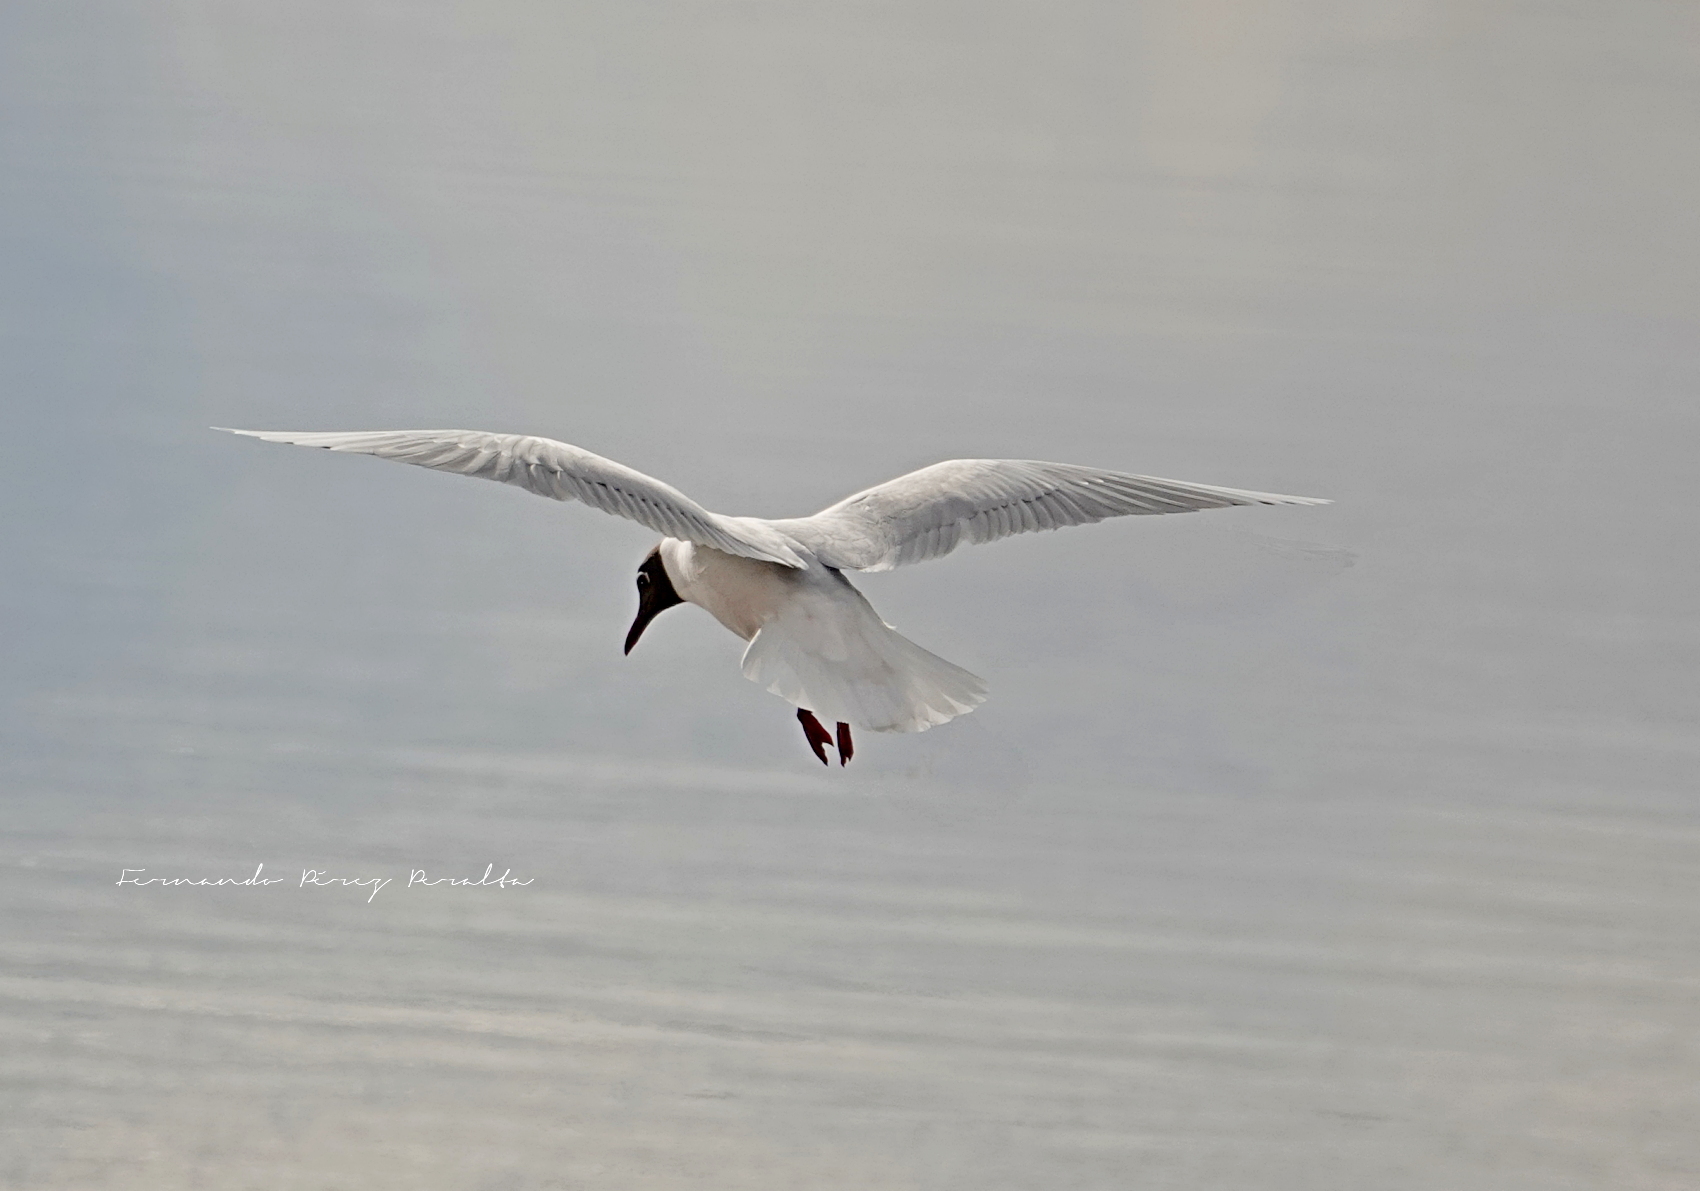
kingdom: Animalia
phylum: Chordata
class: Aves
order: Charadriiformes
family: Laridae
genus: Chroicocephalus
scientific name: Chroicocephalus maculipennis
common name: Brown-hooded gull
